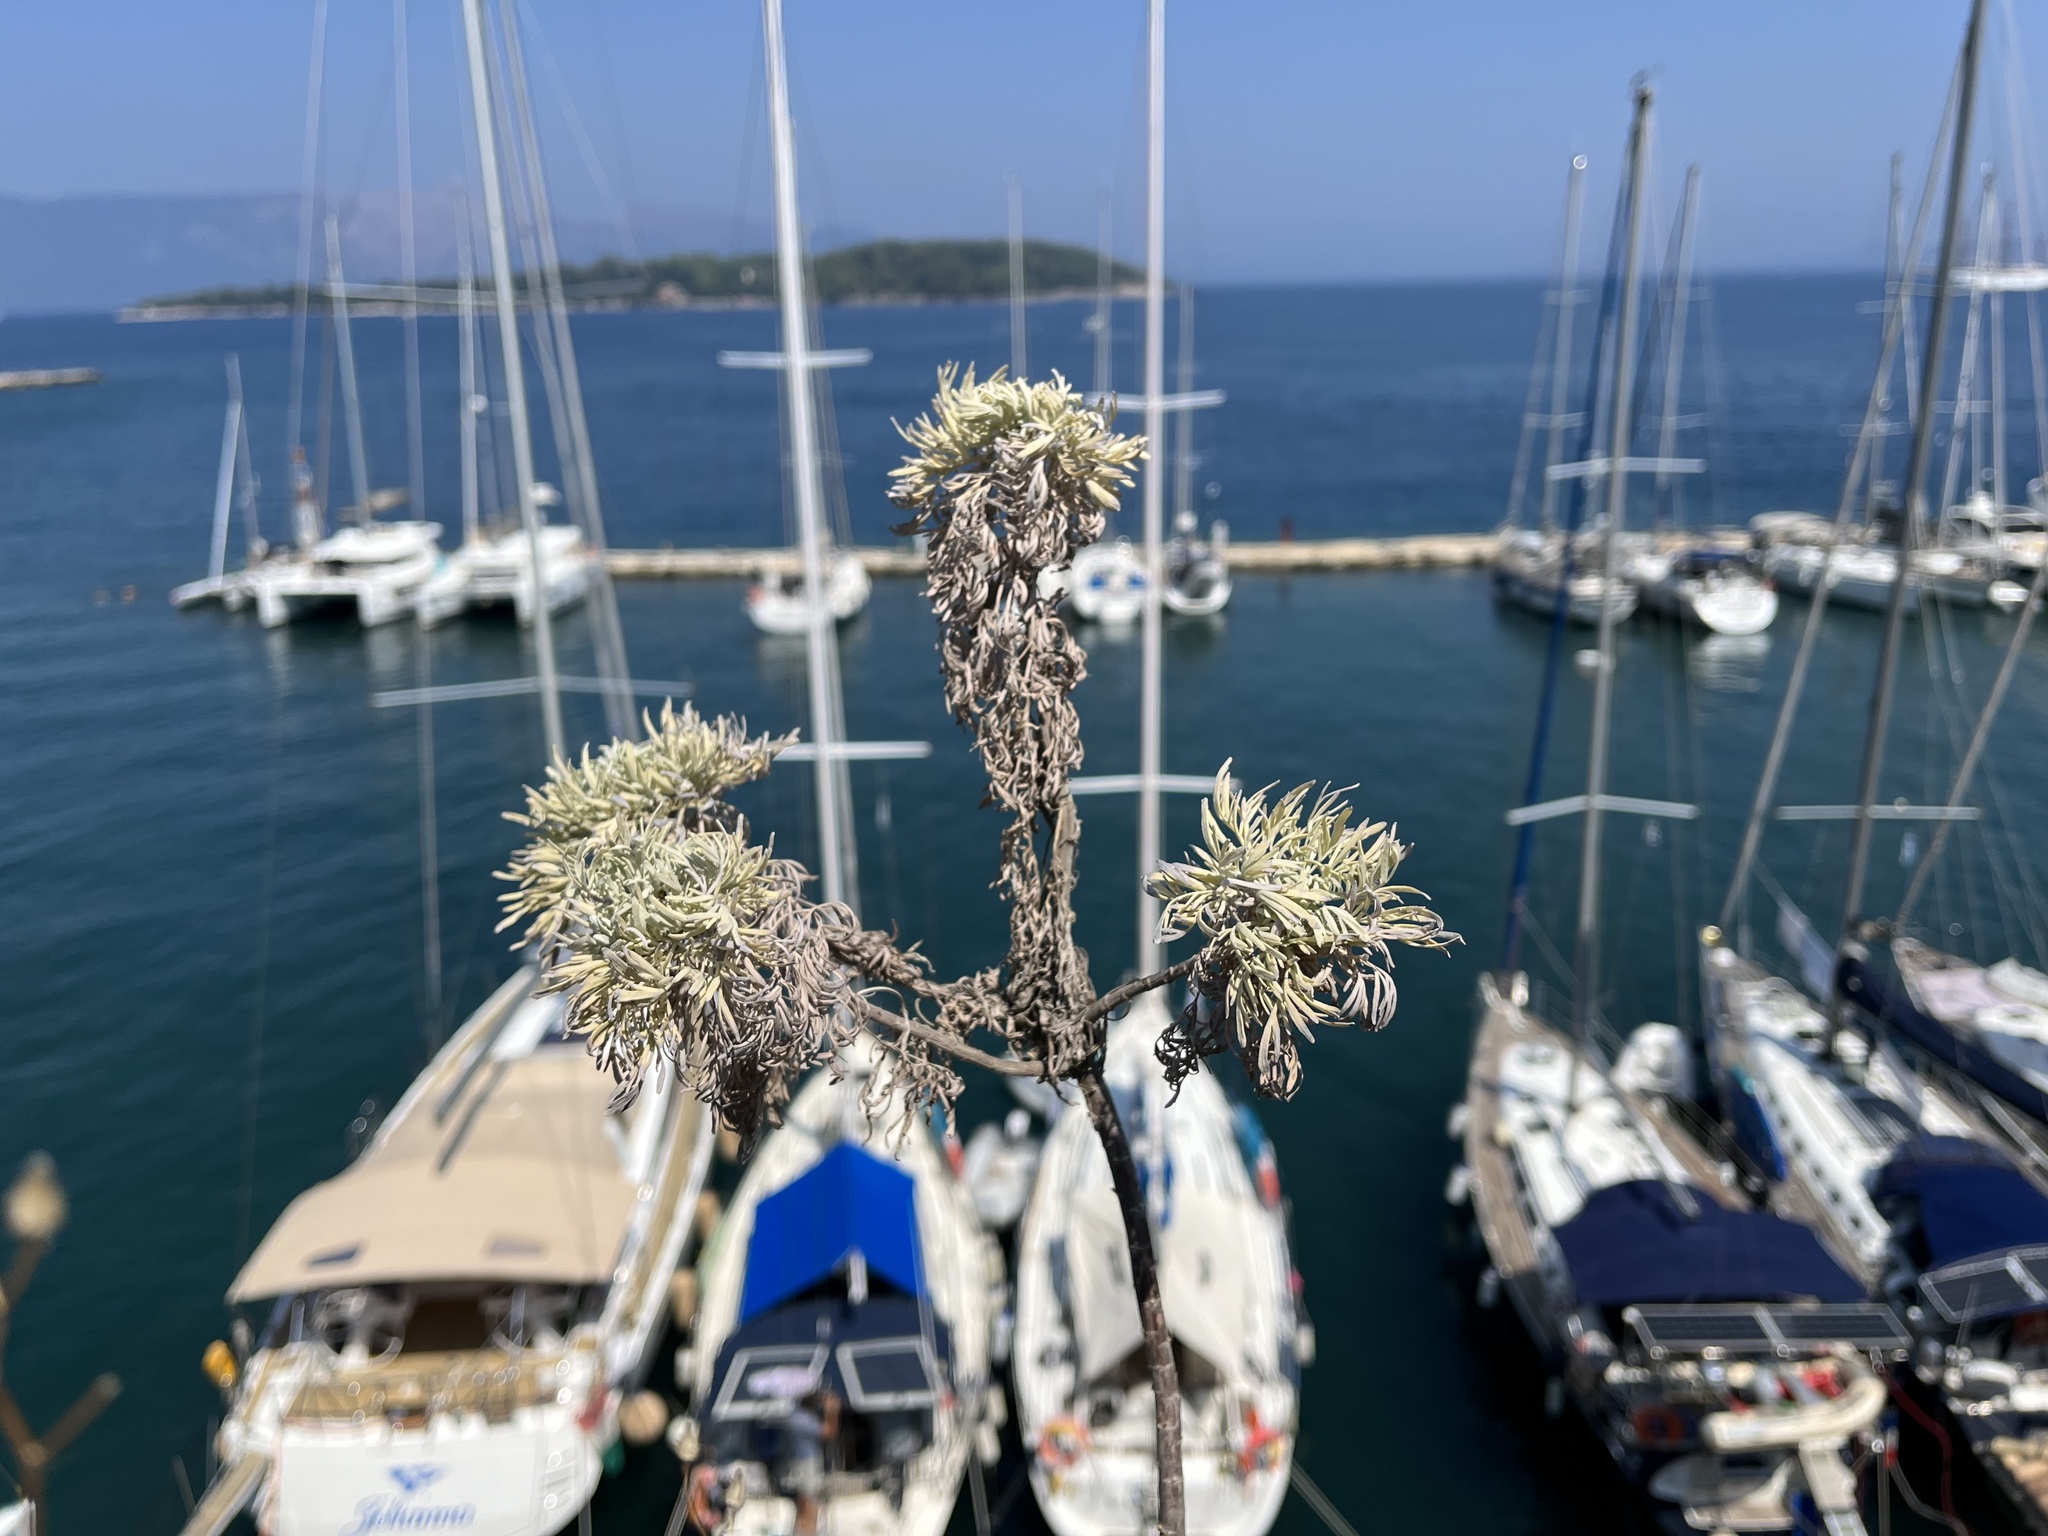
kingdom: Plantae
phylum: Tracheophyta
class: Magnoliopsida
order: Asterales
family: Asteraceae
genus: Artemisia
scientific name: Artemisia arborescens
